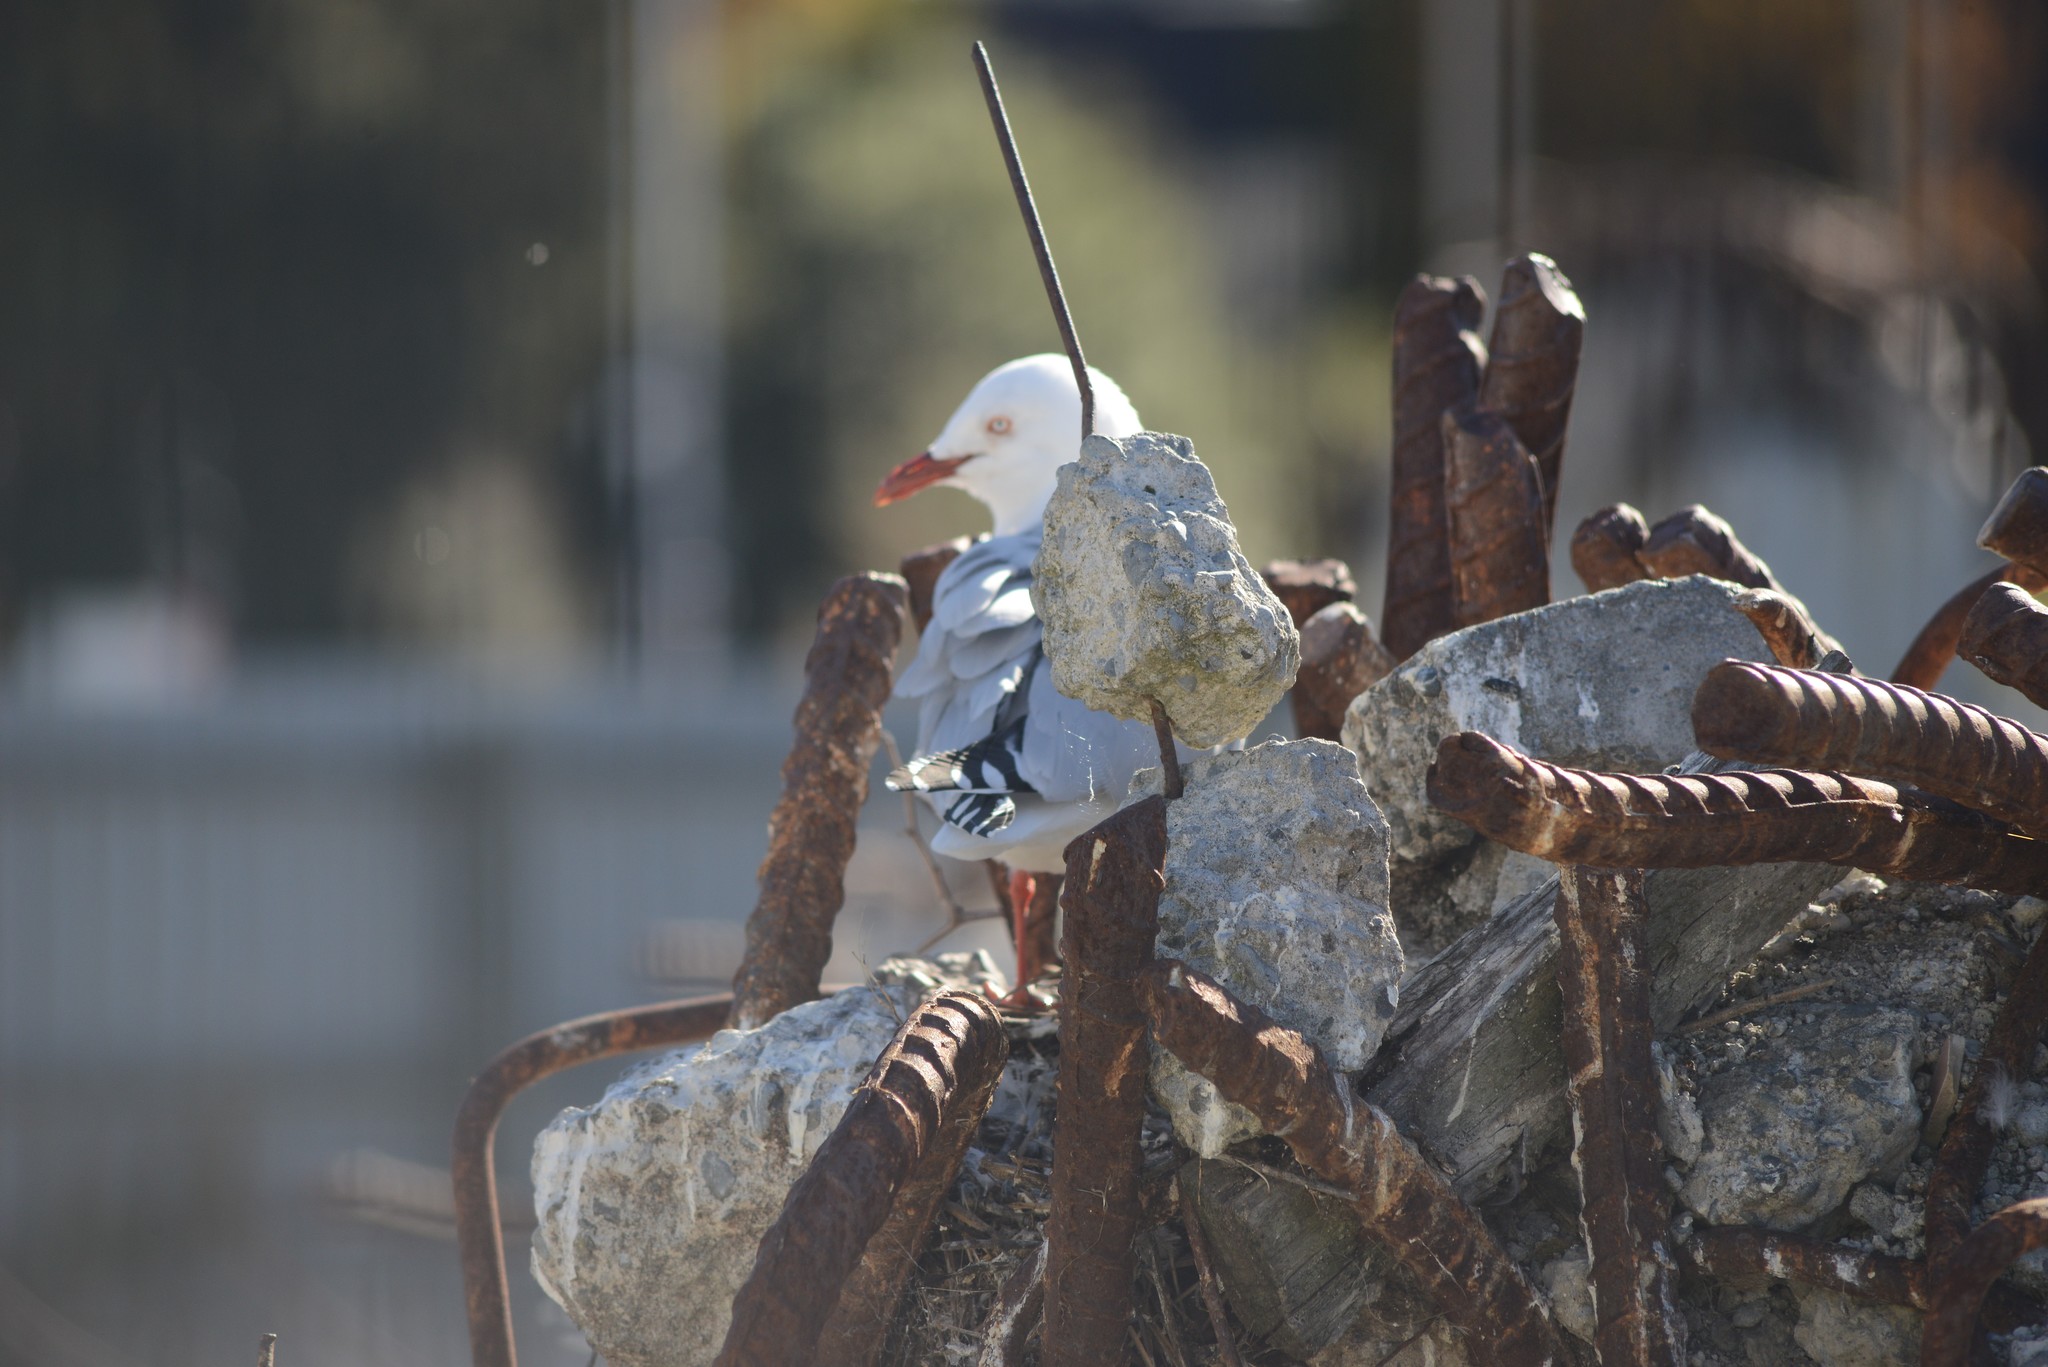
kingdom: Animalia
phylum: Chordata
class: Aves
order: Charadriiformes
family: Laridae
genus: Chroicocephalus
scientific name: Chroicocephalus novaehollandiae
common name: Silver gull
